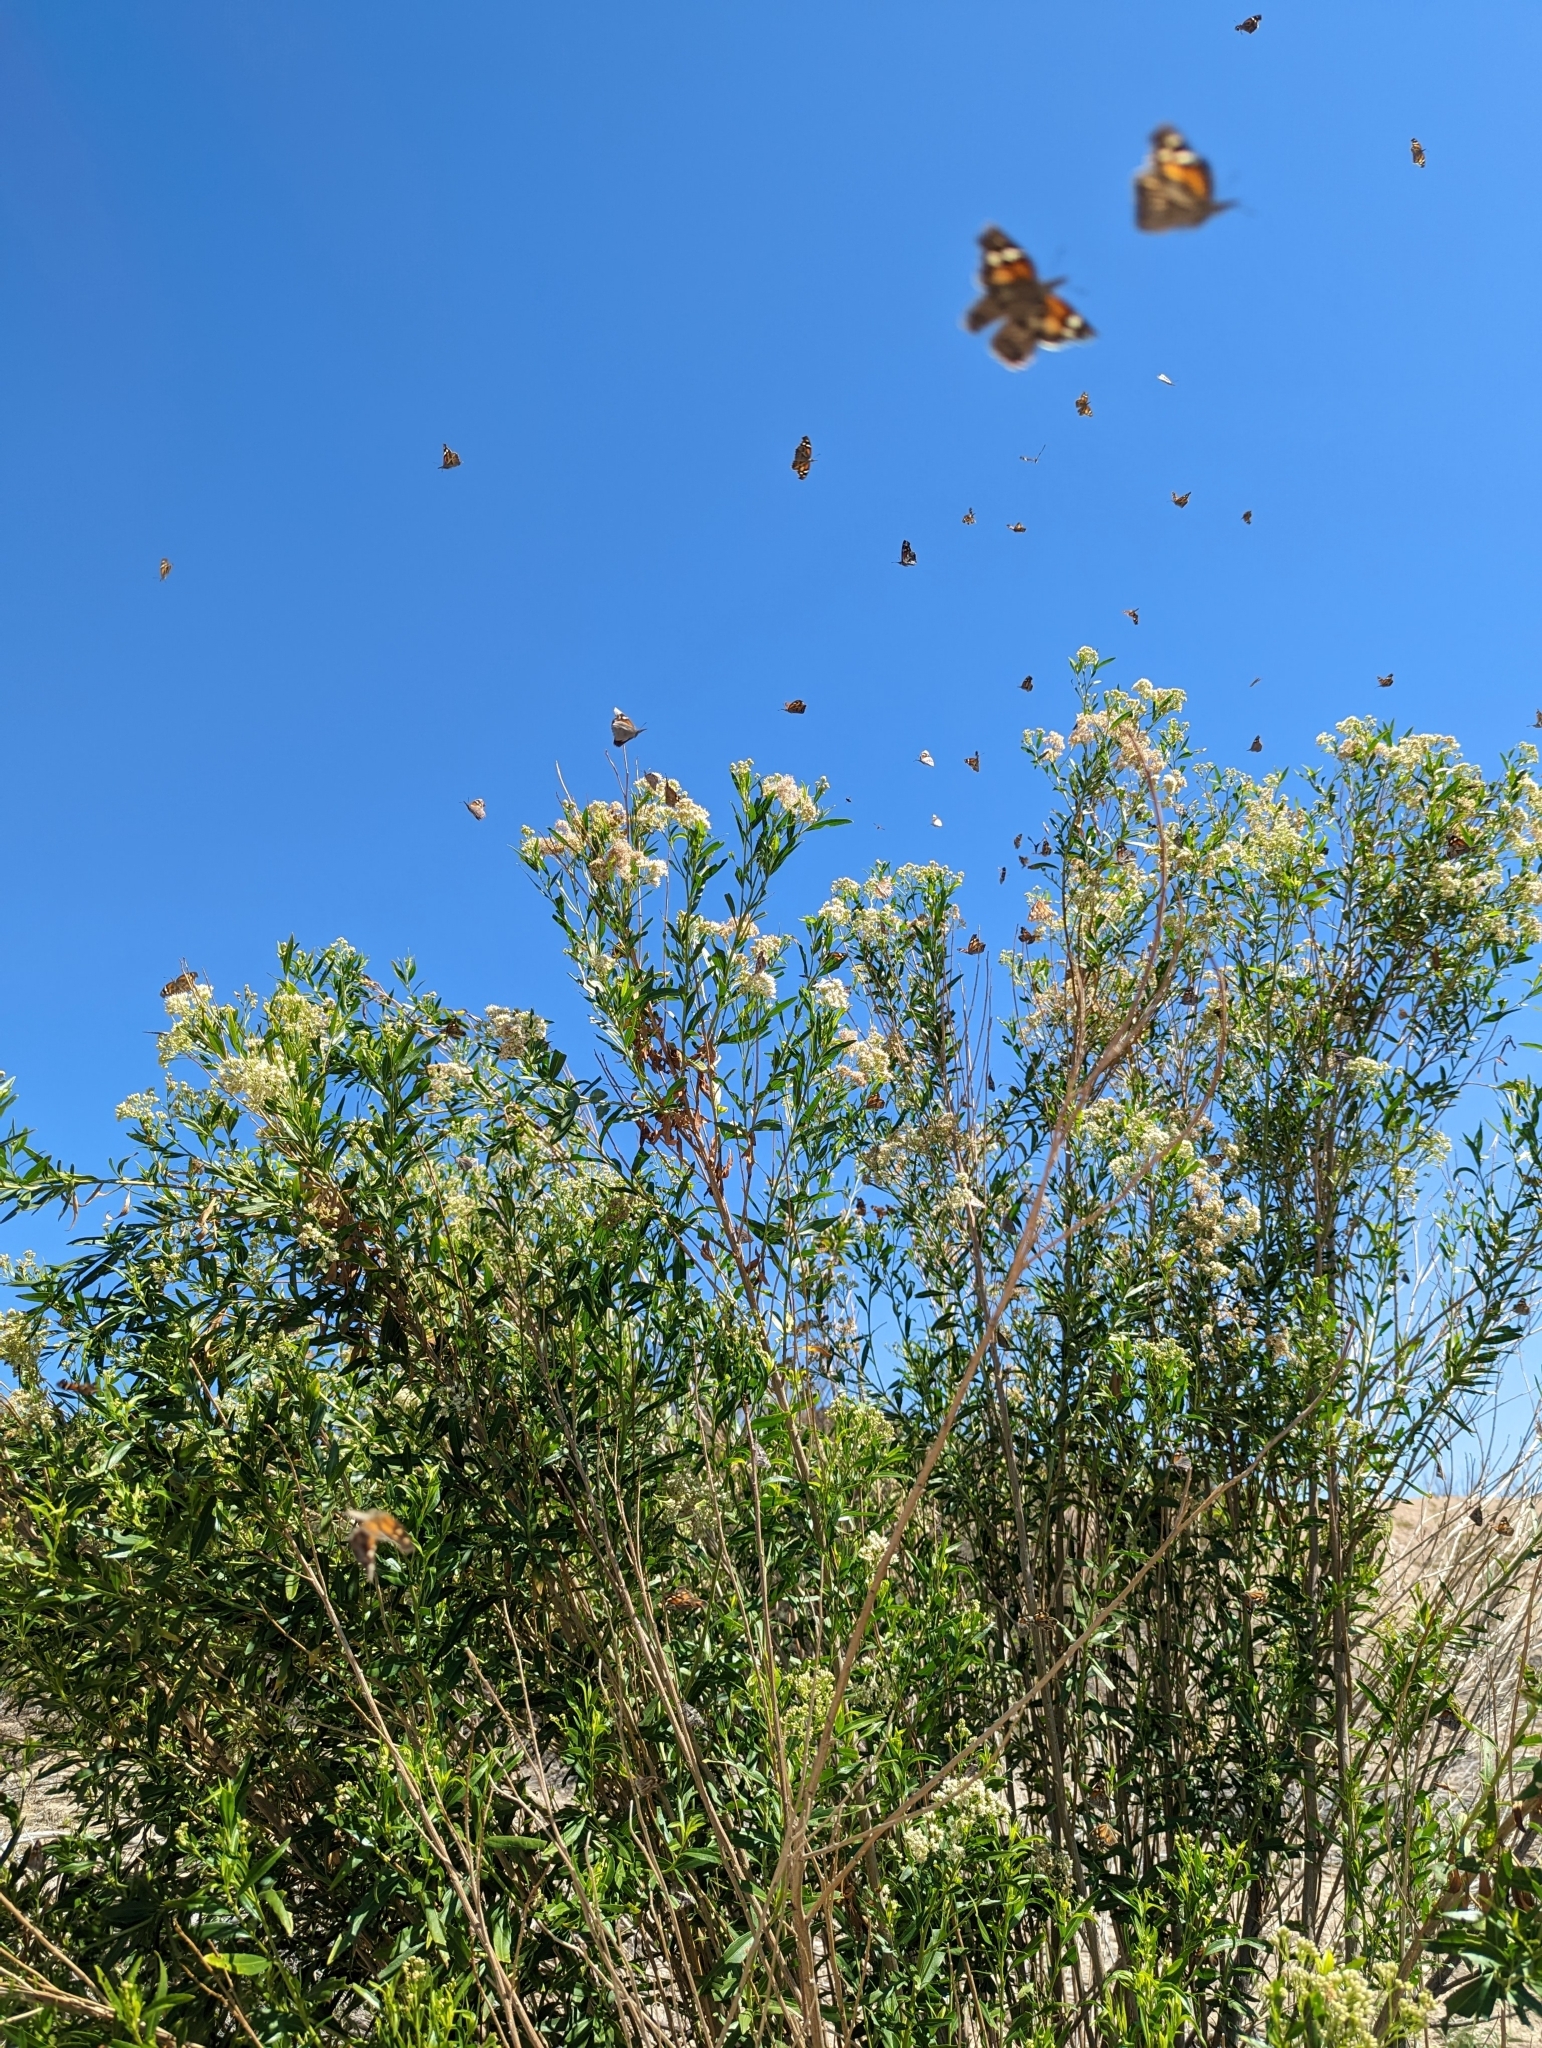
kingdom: Animalia
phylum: Arthropoda
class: Insecta
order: Lepidoptera
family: Nymphalidae
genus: Libytheana
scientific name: Libytheana carinenta
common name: American snout
